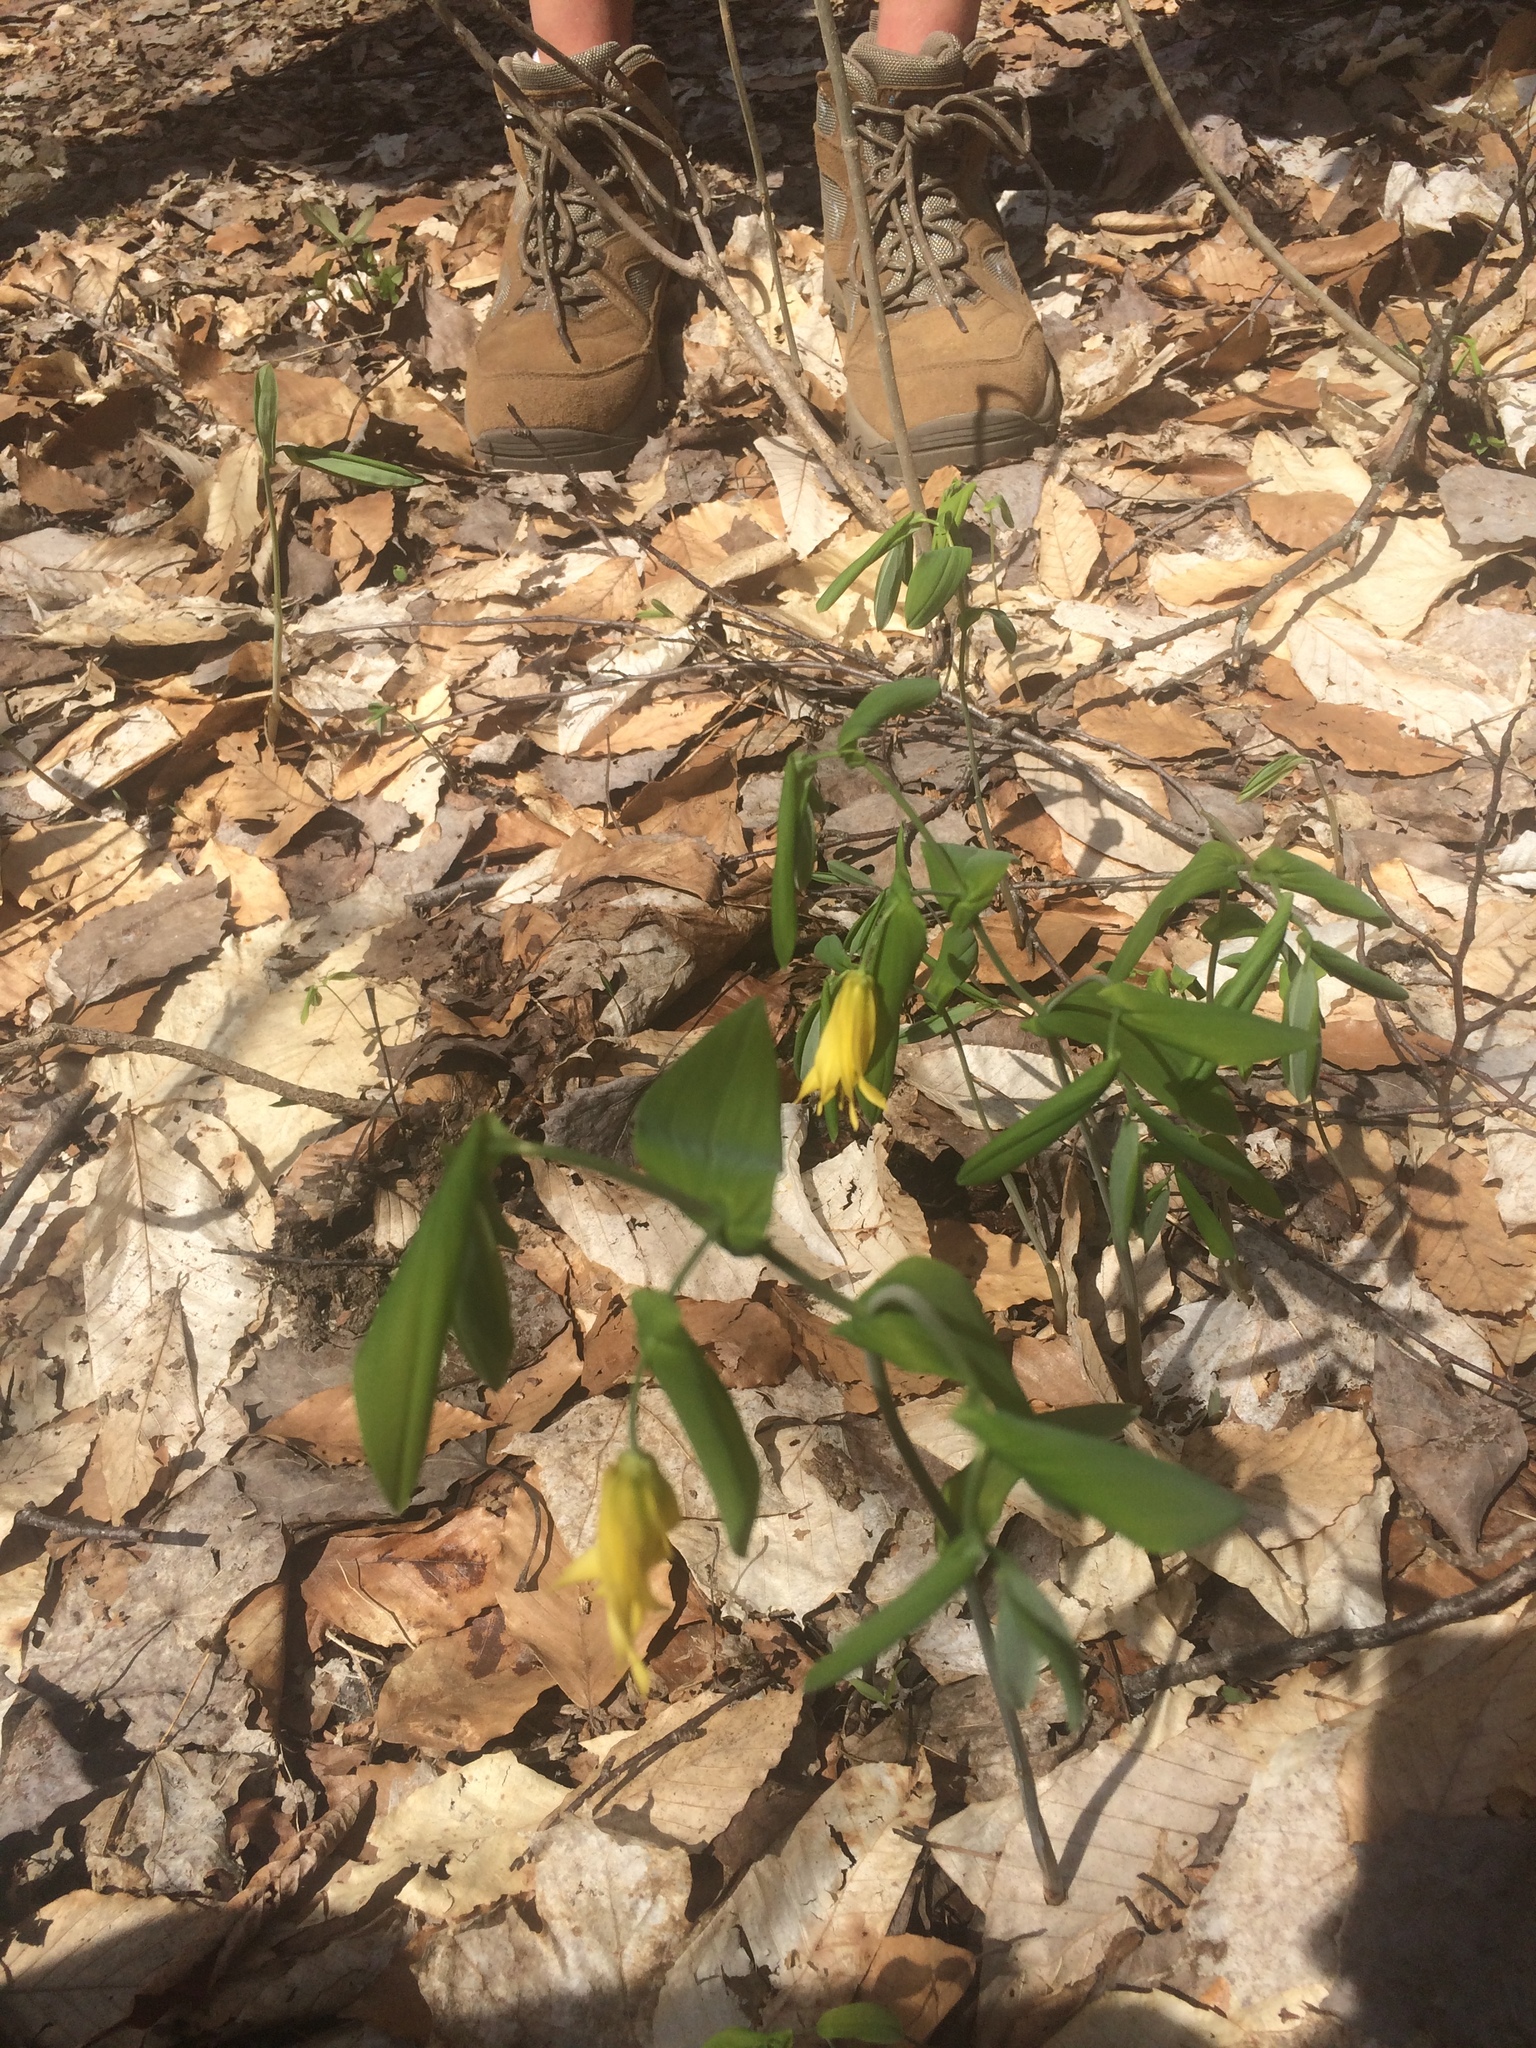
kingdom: Plantae
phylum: Tracheophyta
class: Liliopsida
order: Liliales
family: Colchicaceae
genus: Uvularia
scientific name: Uvularia grandiflora
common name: Bellwort
